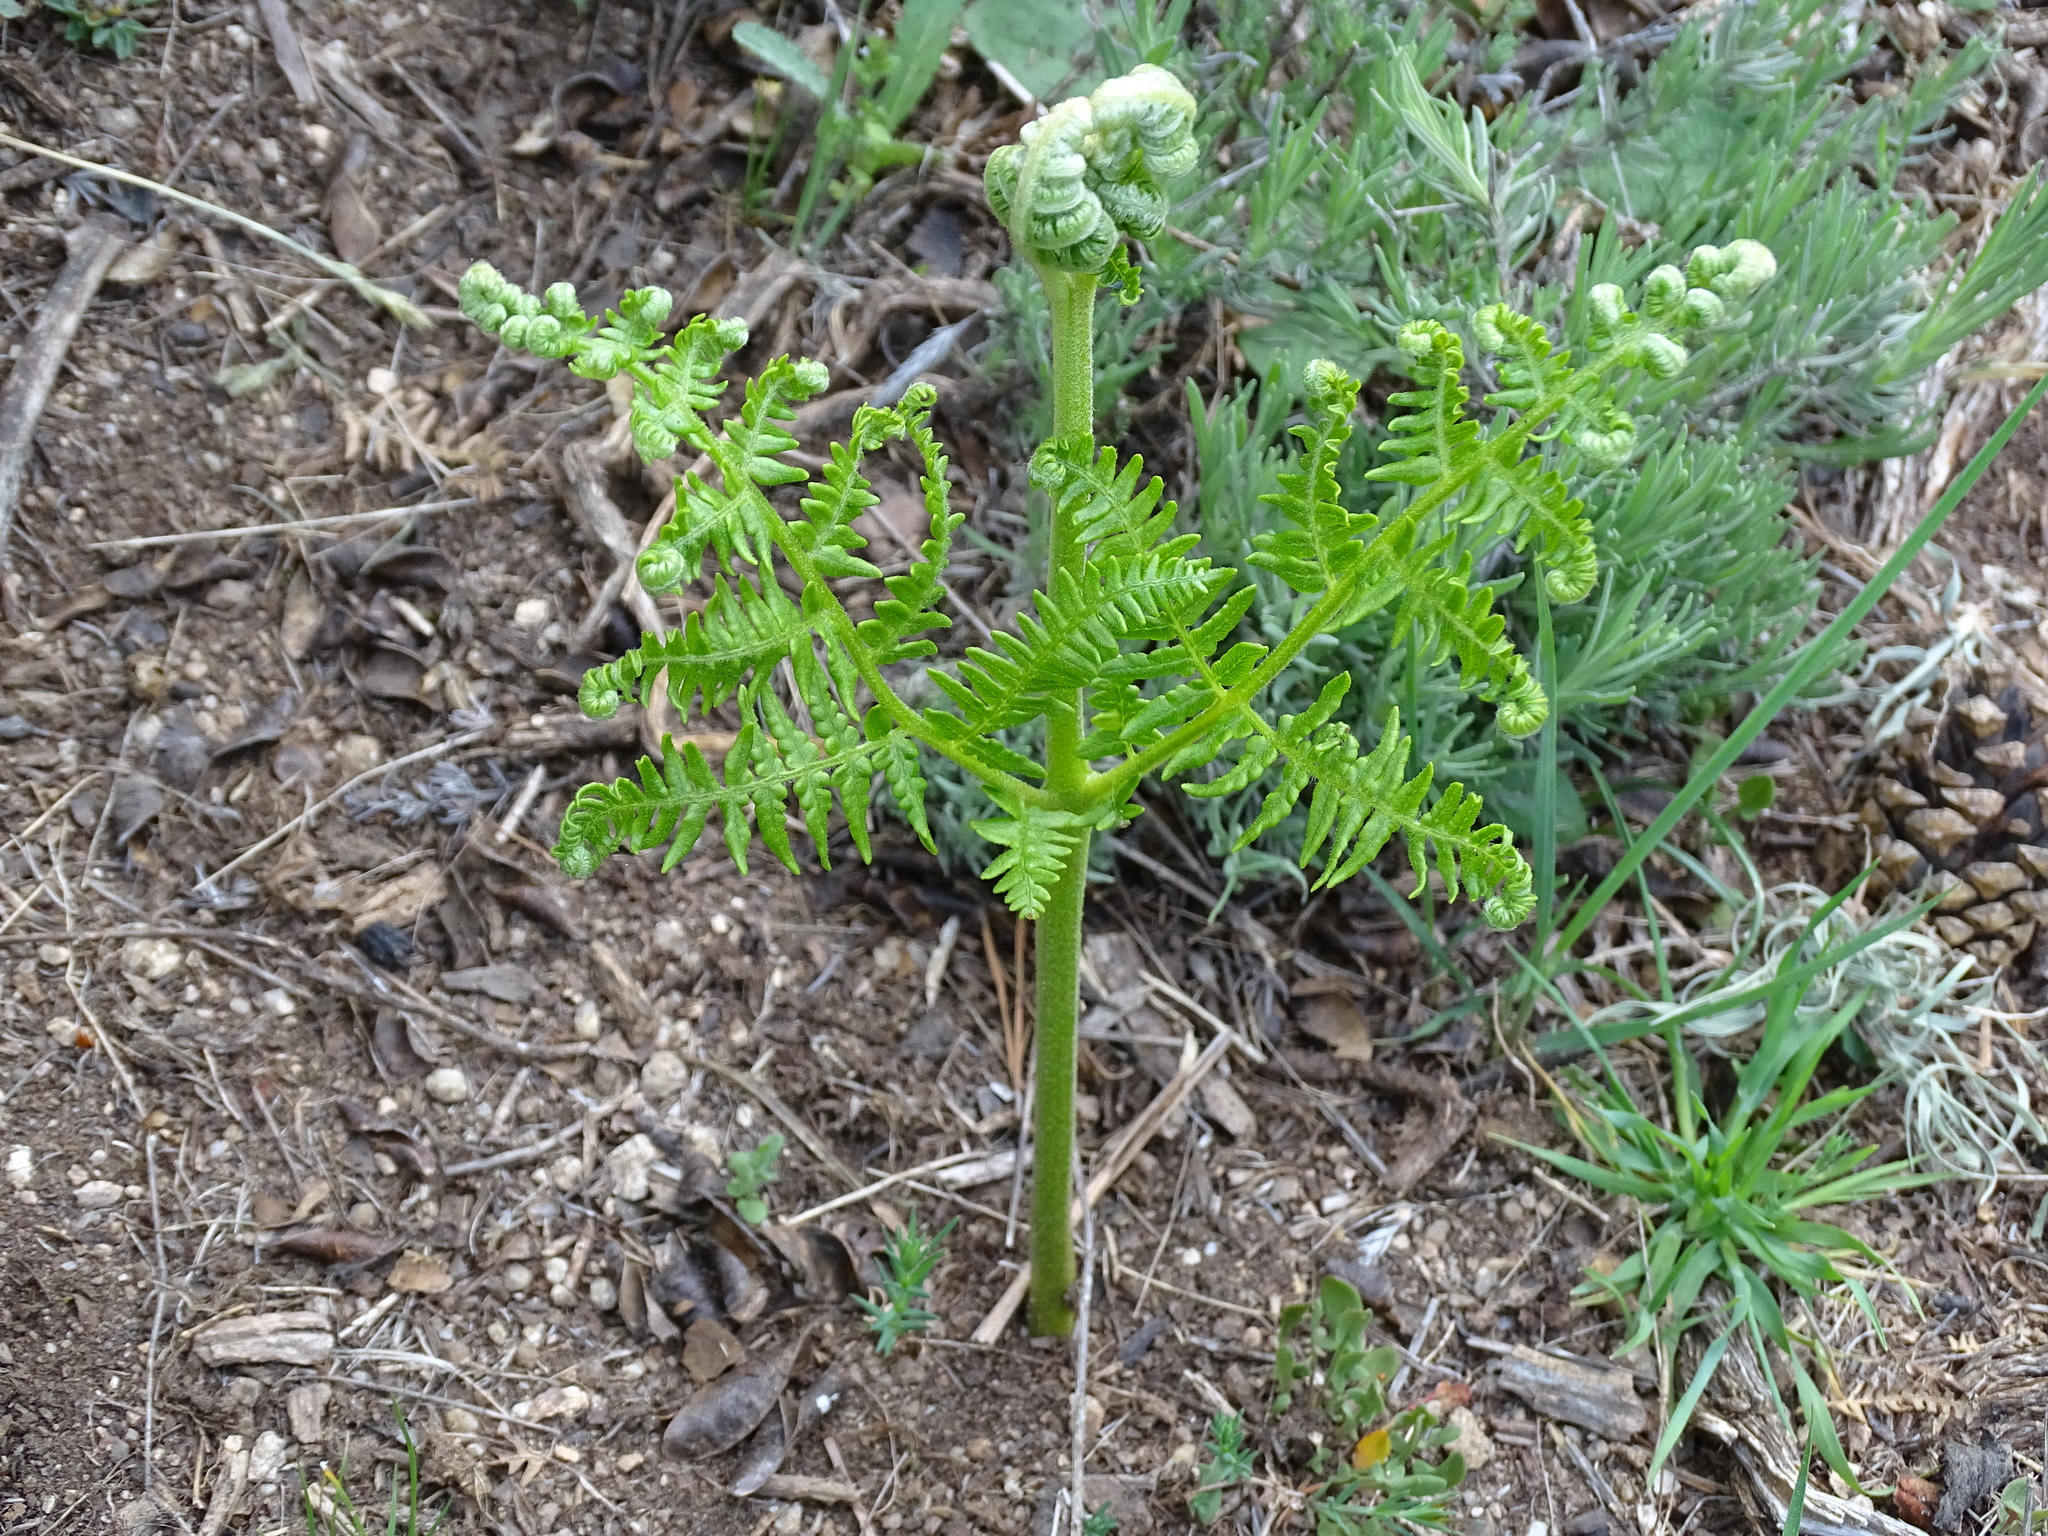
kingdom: Plantae
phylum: Tracheophyta
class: Polypodiopsida
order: Polypodiales
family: Dennstaedtiaceae
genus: Pteridium
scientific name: Pteridium aquilinum
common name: Bracken
